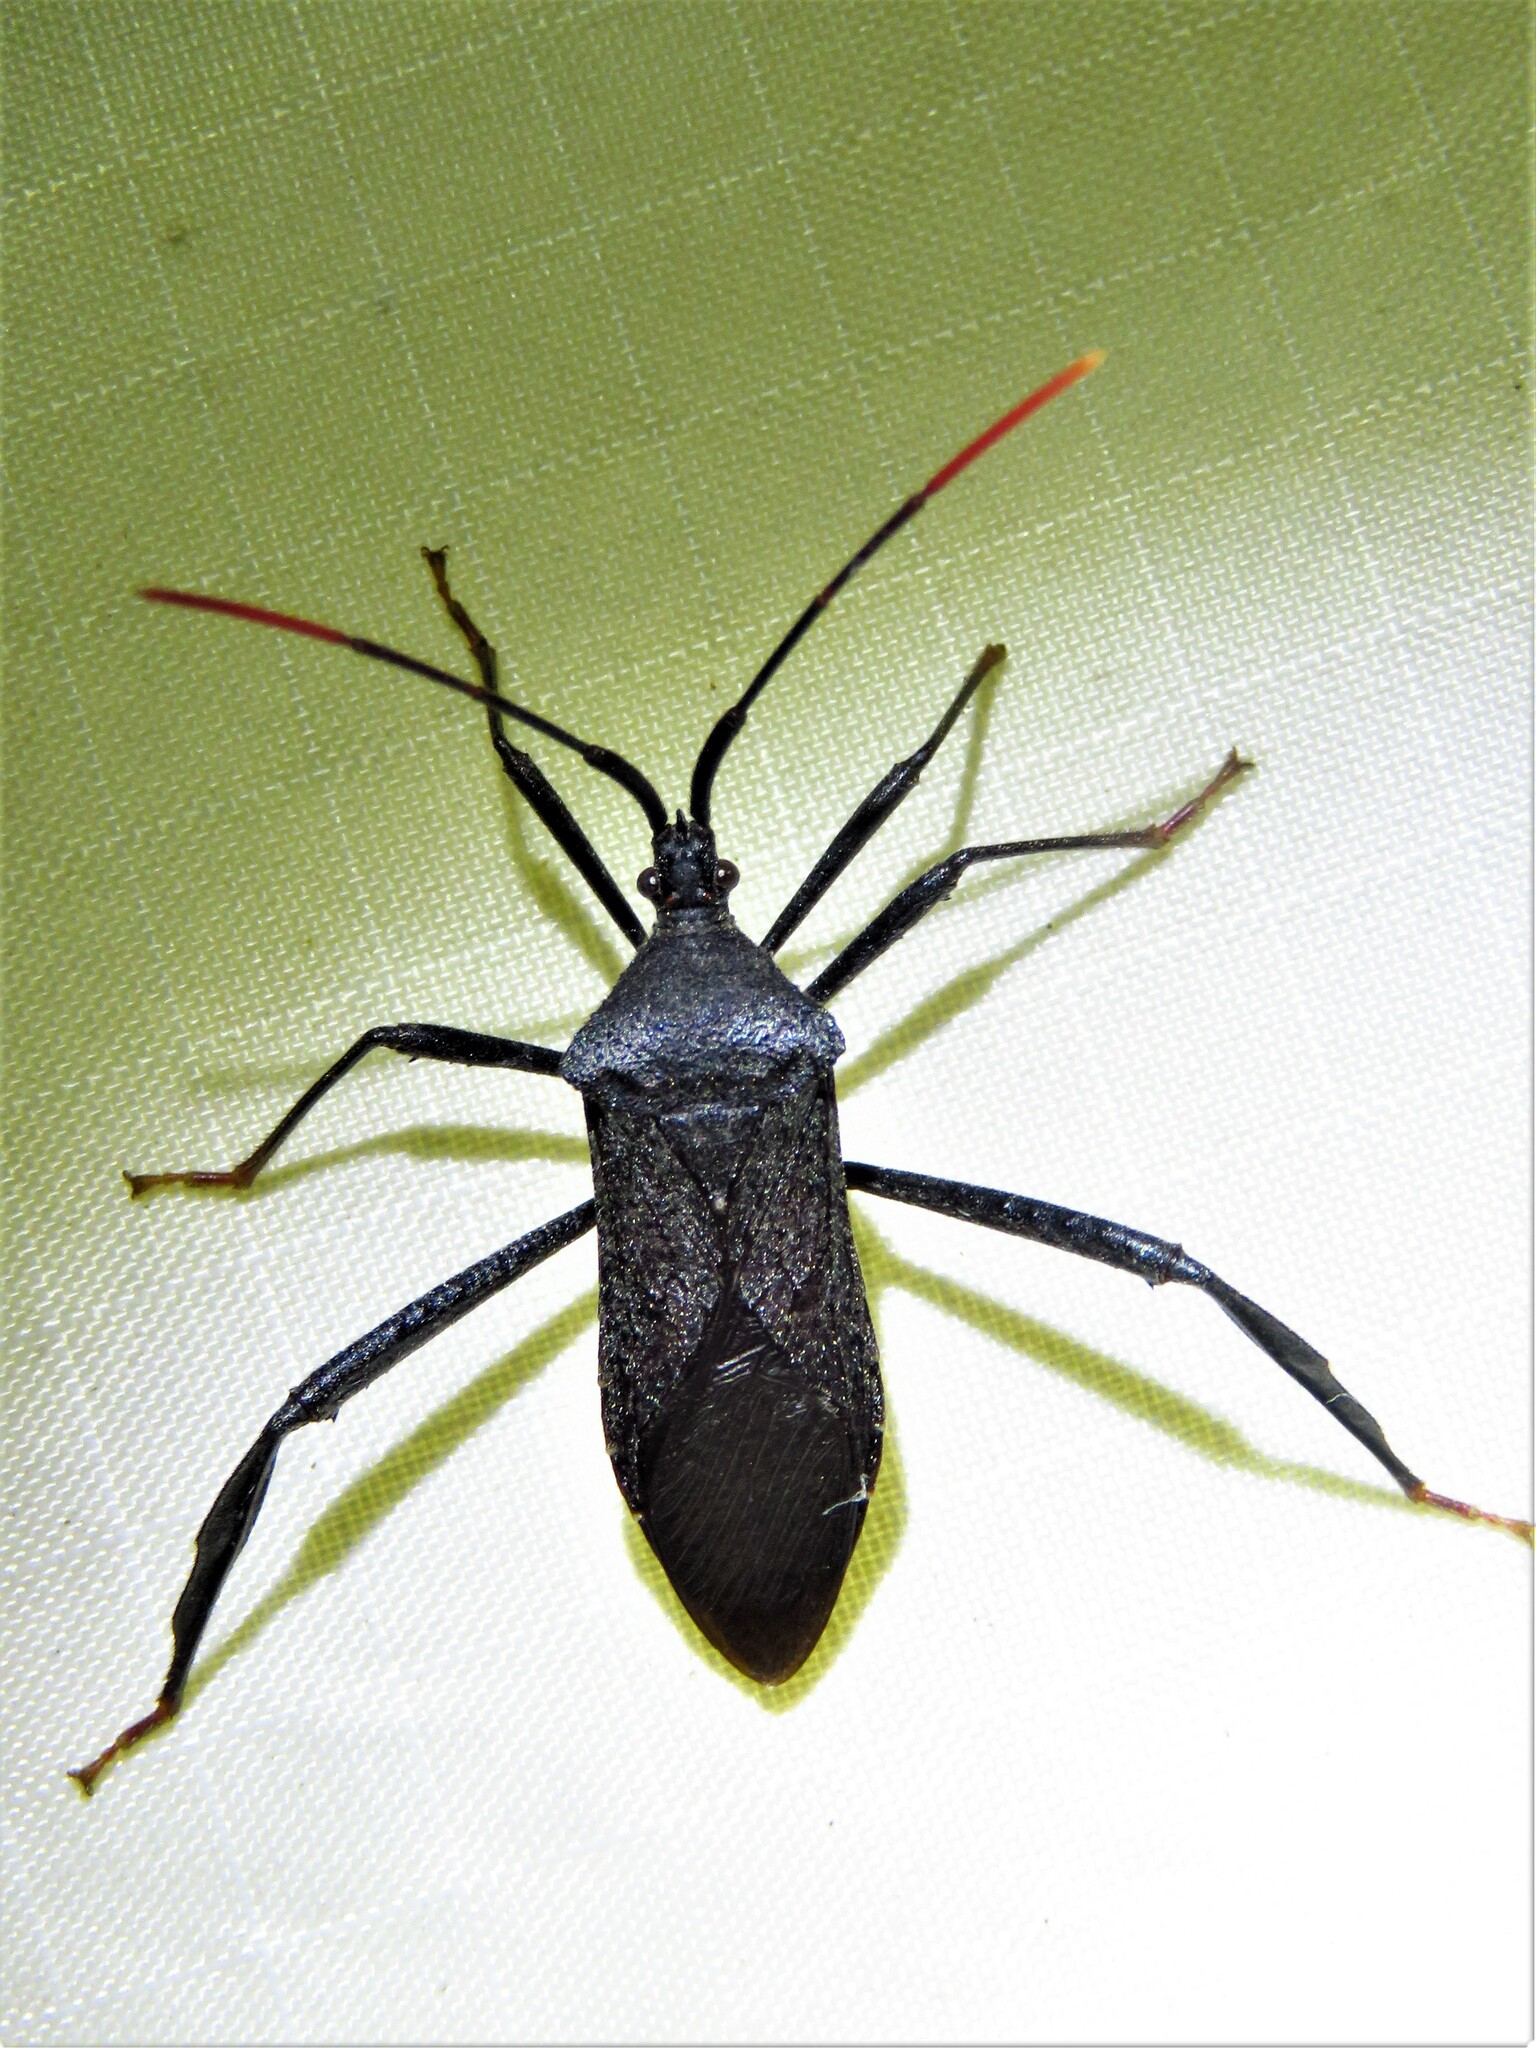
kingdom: Animalia
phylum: Arthropoda
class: Insecta
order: Hemiptera
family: Coreidae
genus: Acanthocephala
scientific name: Acanthocephala terminalis
